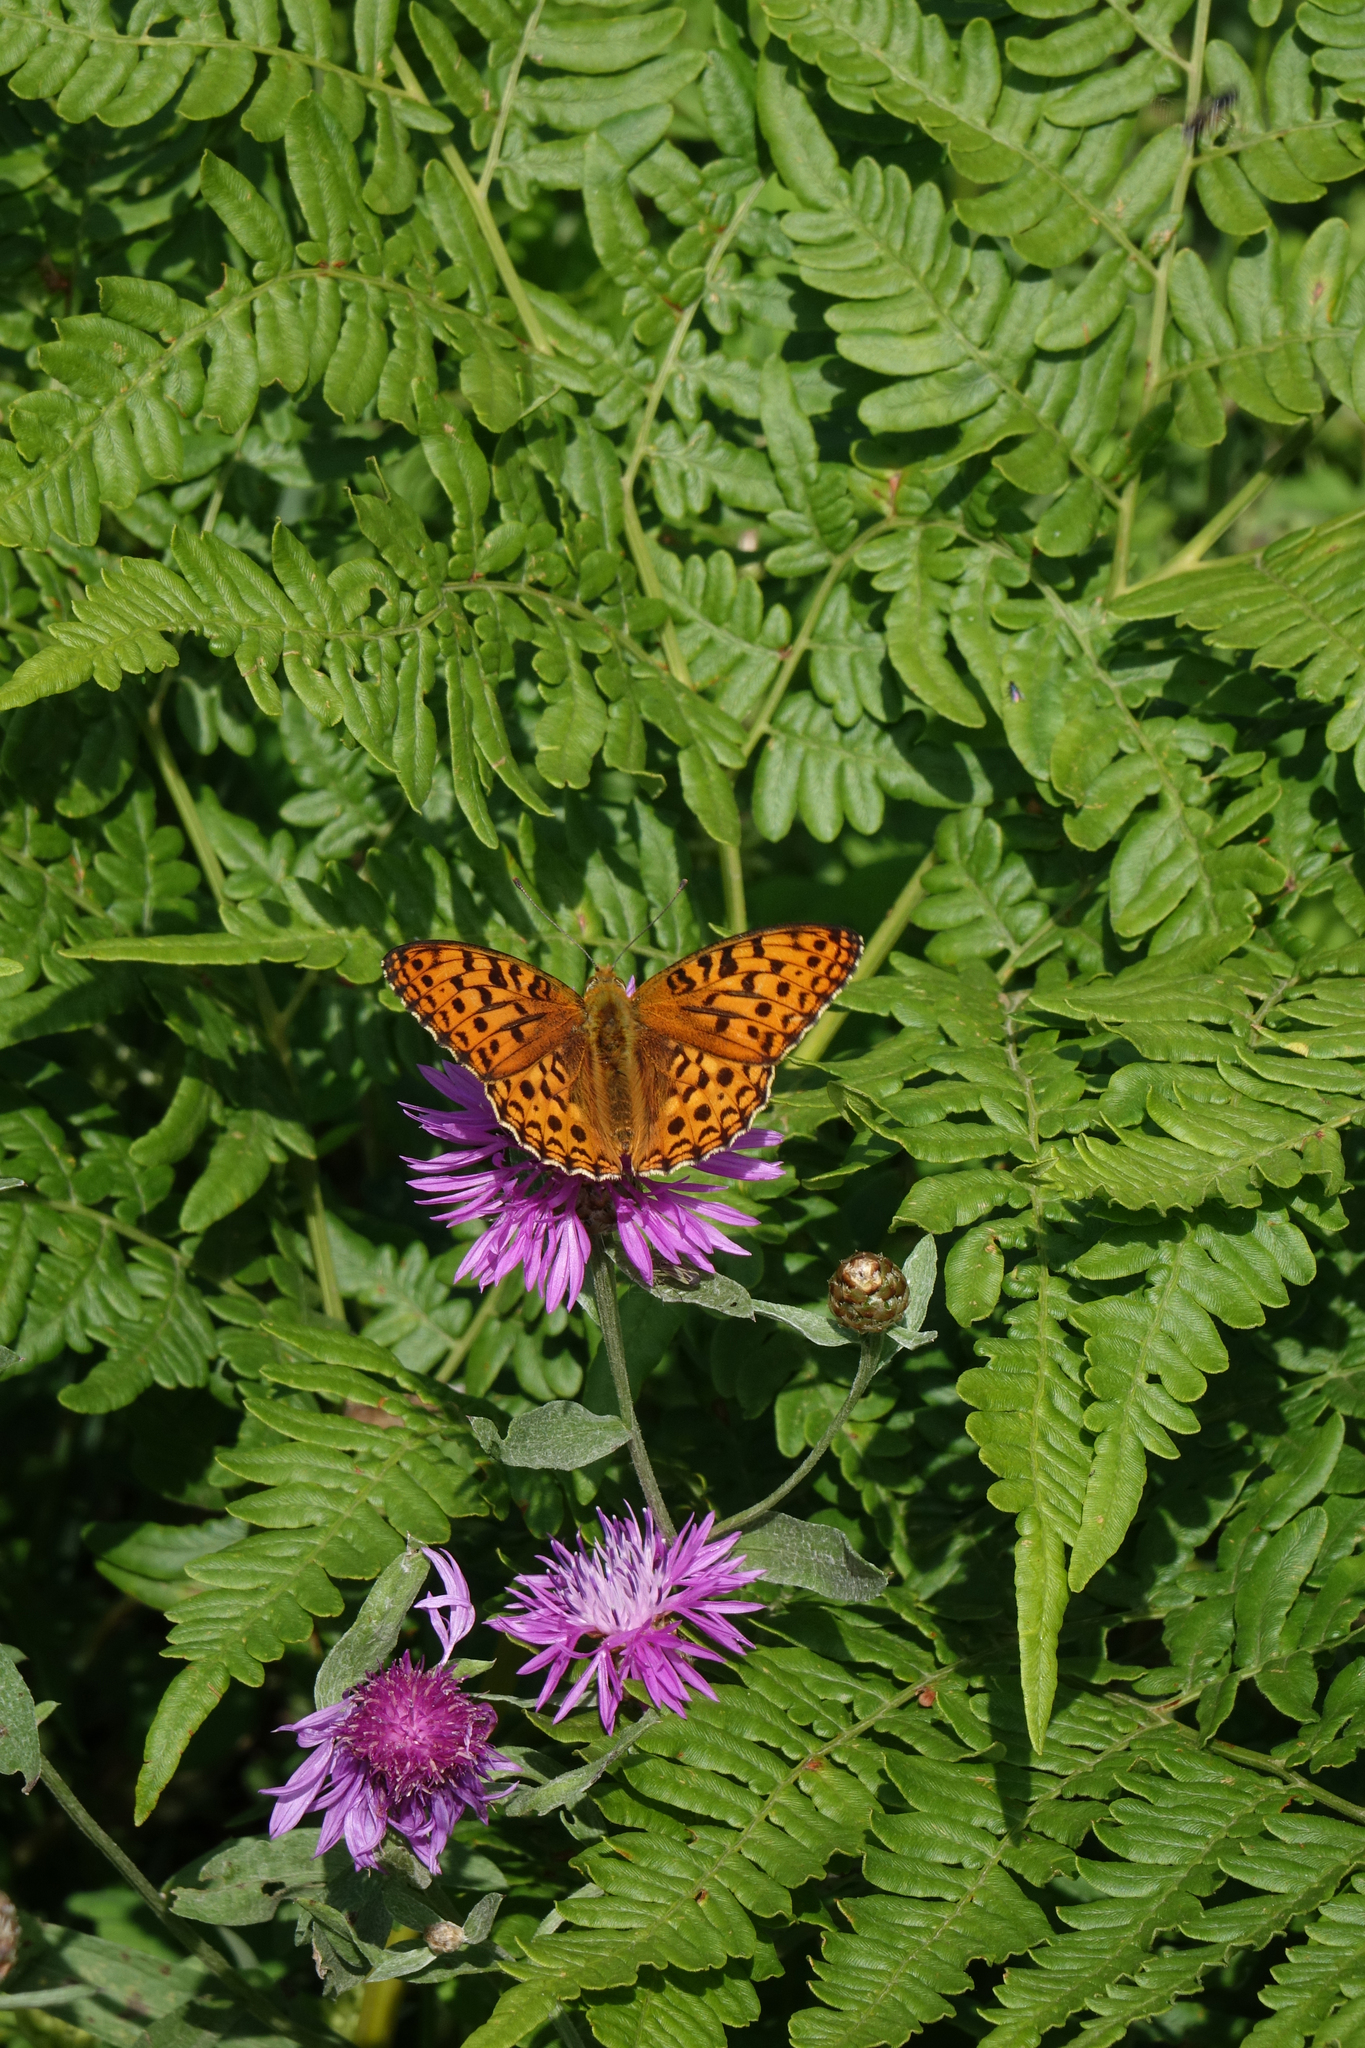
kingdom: Plantae
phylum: Tracheophyta
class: Polypodiopsida
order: Polypodiales
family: Dennstaedtiaceae
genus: Pteridium
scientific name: Pteridium aquilinum
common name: Bracken
